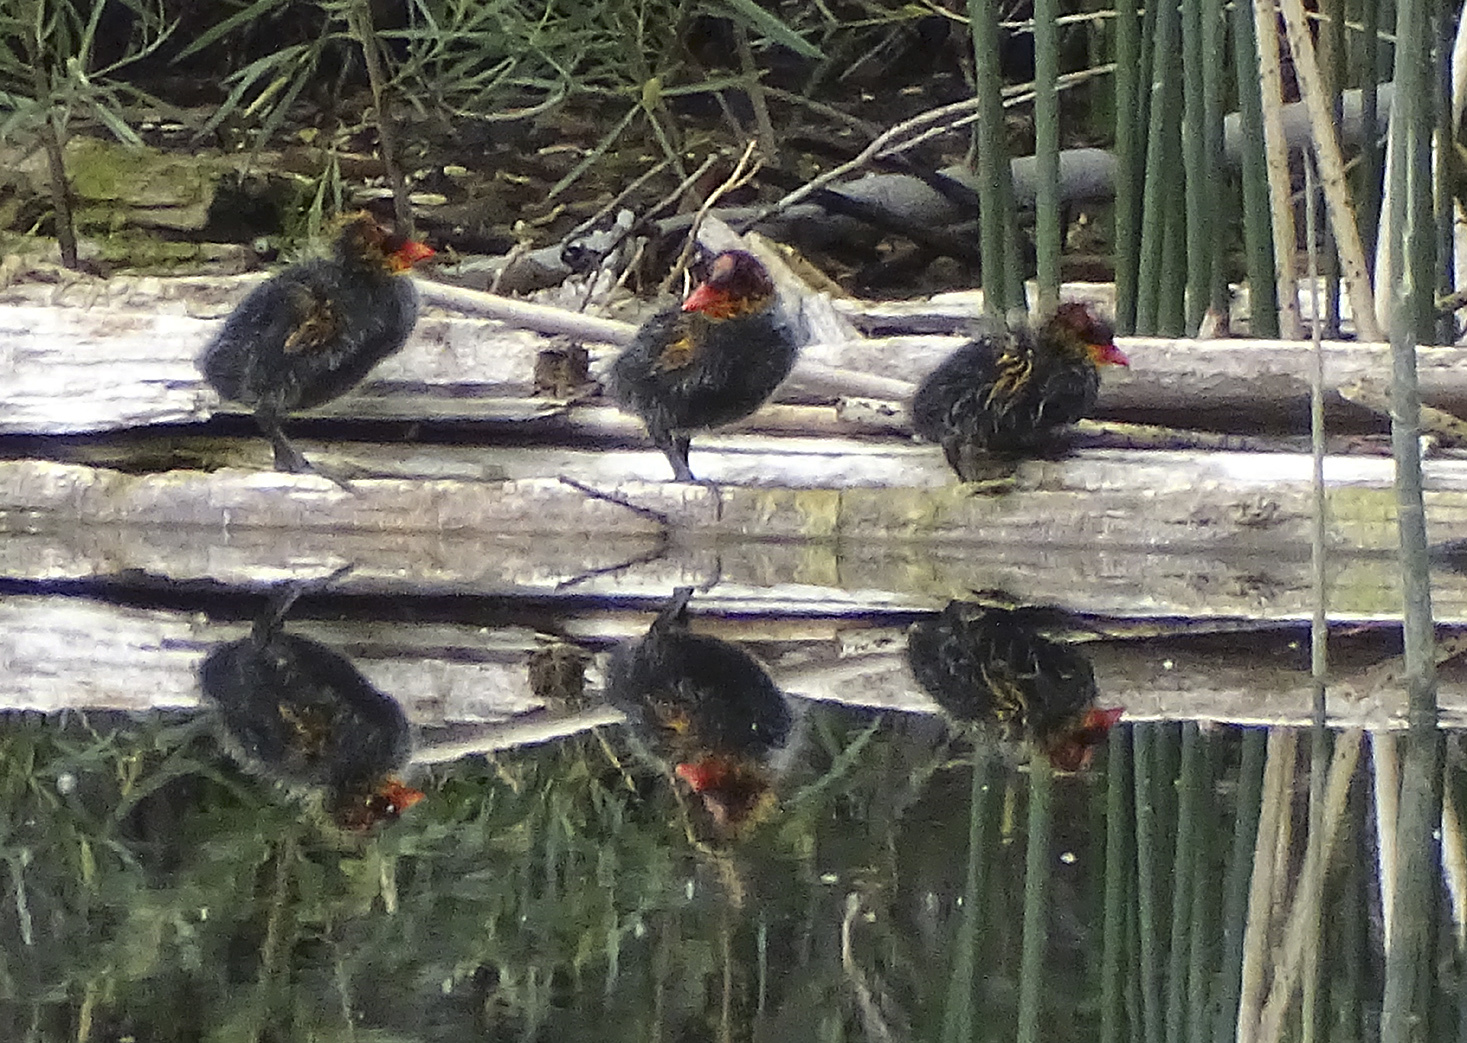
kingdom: Animalia
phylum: Chordata
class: Aves
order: Gruiformes
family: Rallidae
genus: Fulica
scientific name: Fulica americana
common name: American coot
